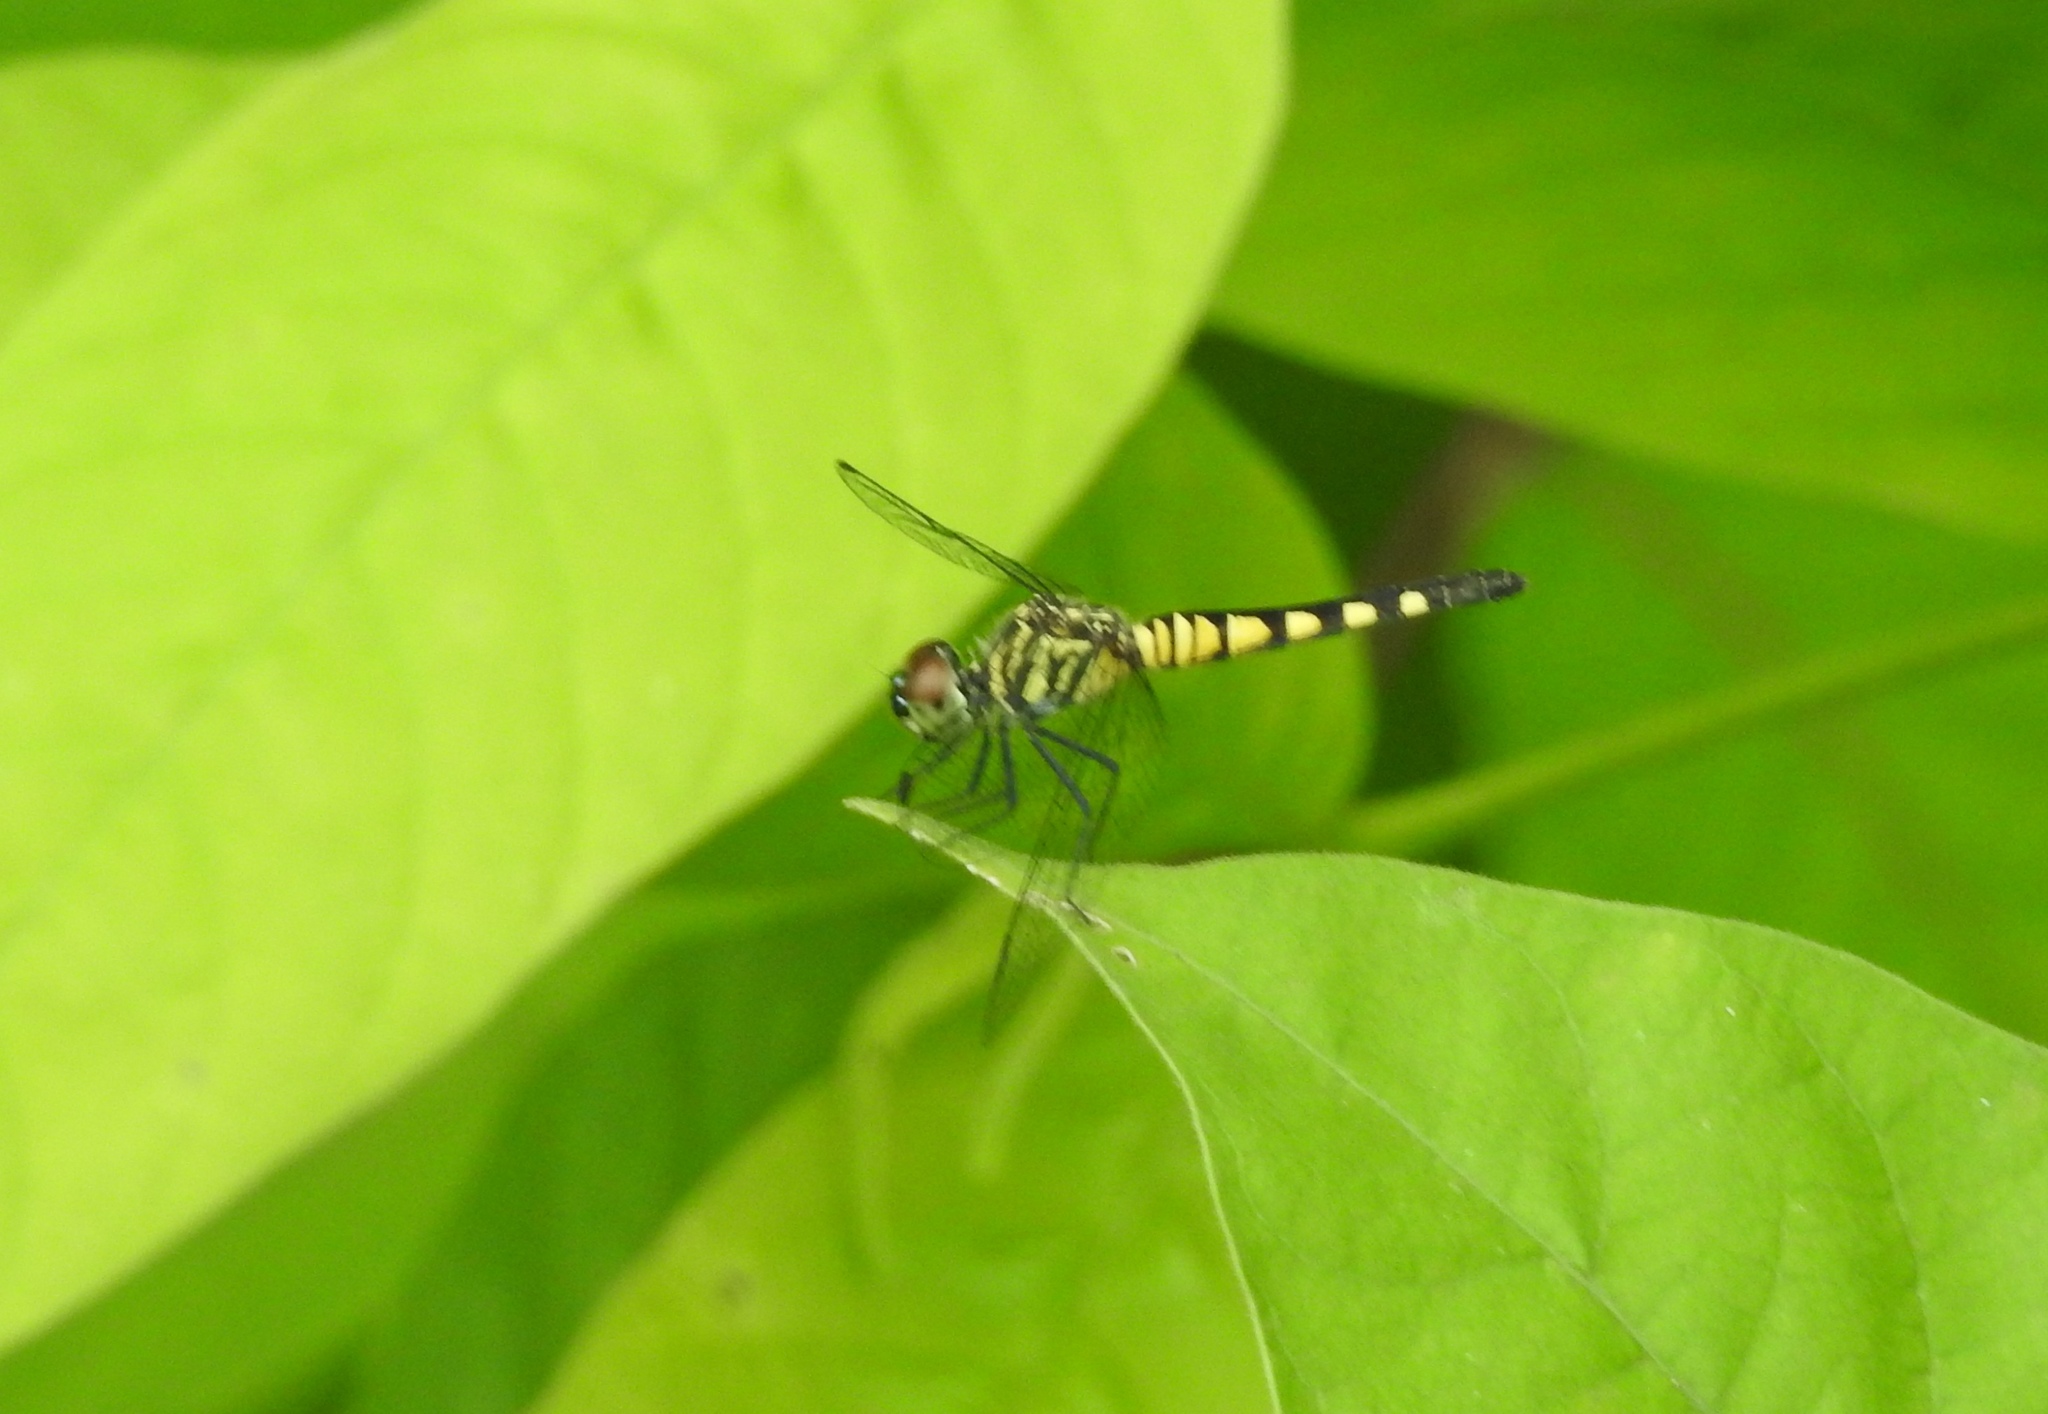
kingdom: Animalia
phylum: Arthropoda
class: Insecta
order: Odonata
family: Libellulidae
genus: Brachydiplax
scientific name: Brachydiplax sobrina
